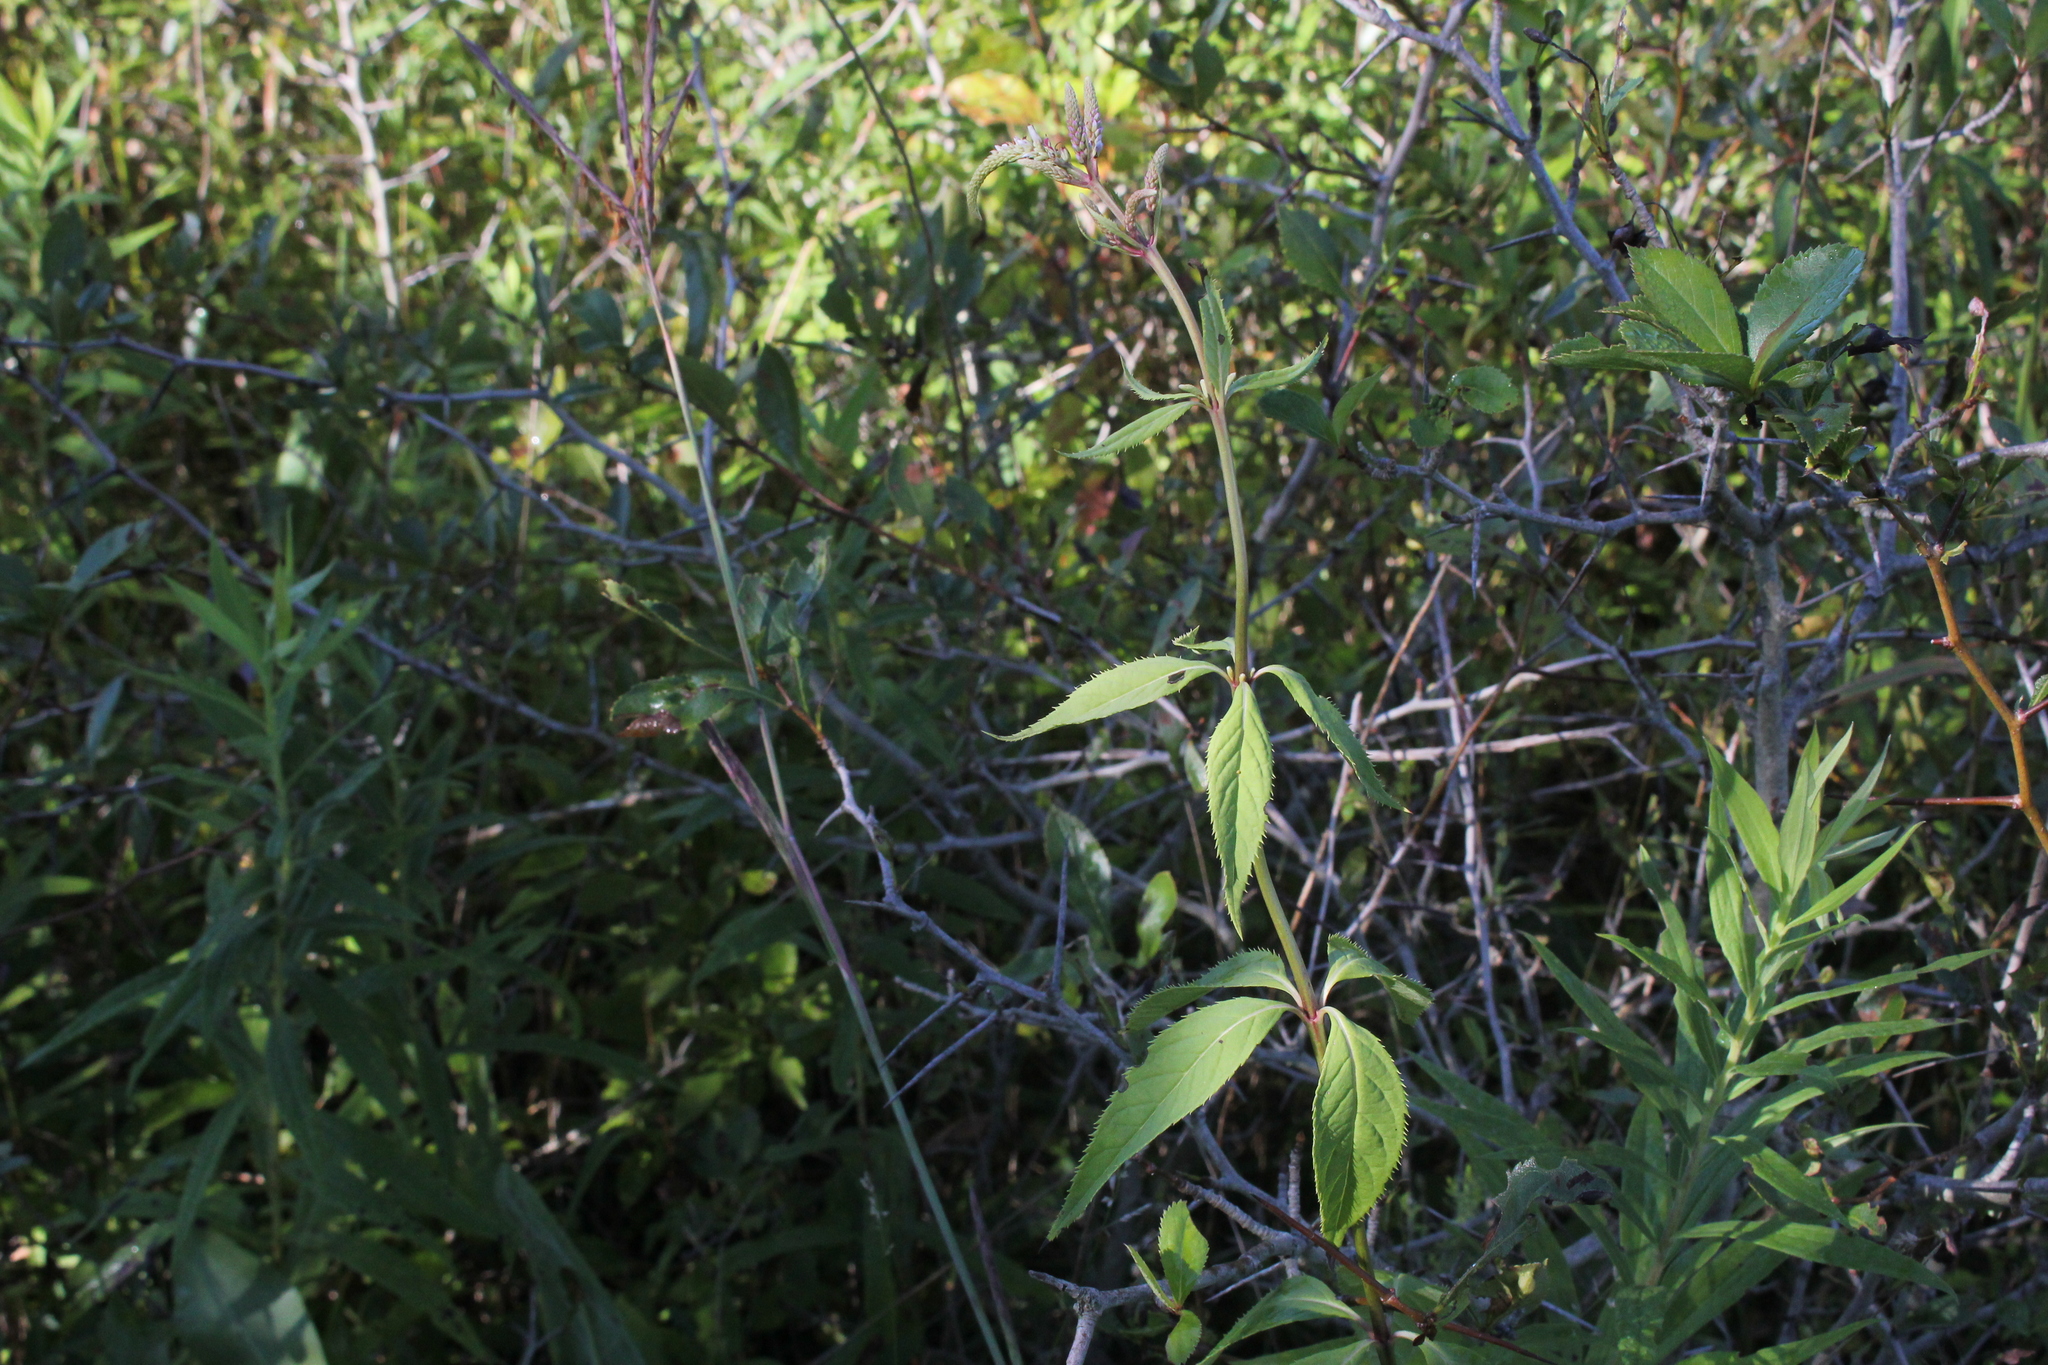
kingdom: Plantae
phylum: Tracheophyta
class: Magnoliopsida
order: Lamiales
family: Plantaginaceae
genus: Veronicastrum
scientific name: Veronicastrum virginicum
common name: Blackroot
